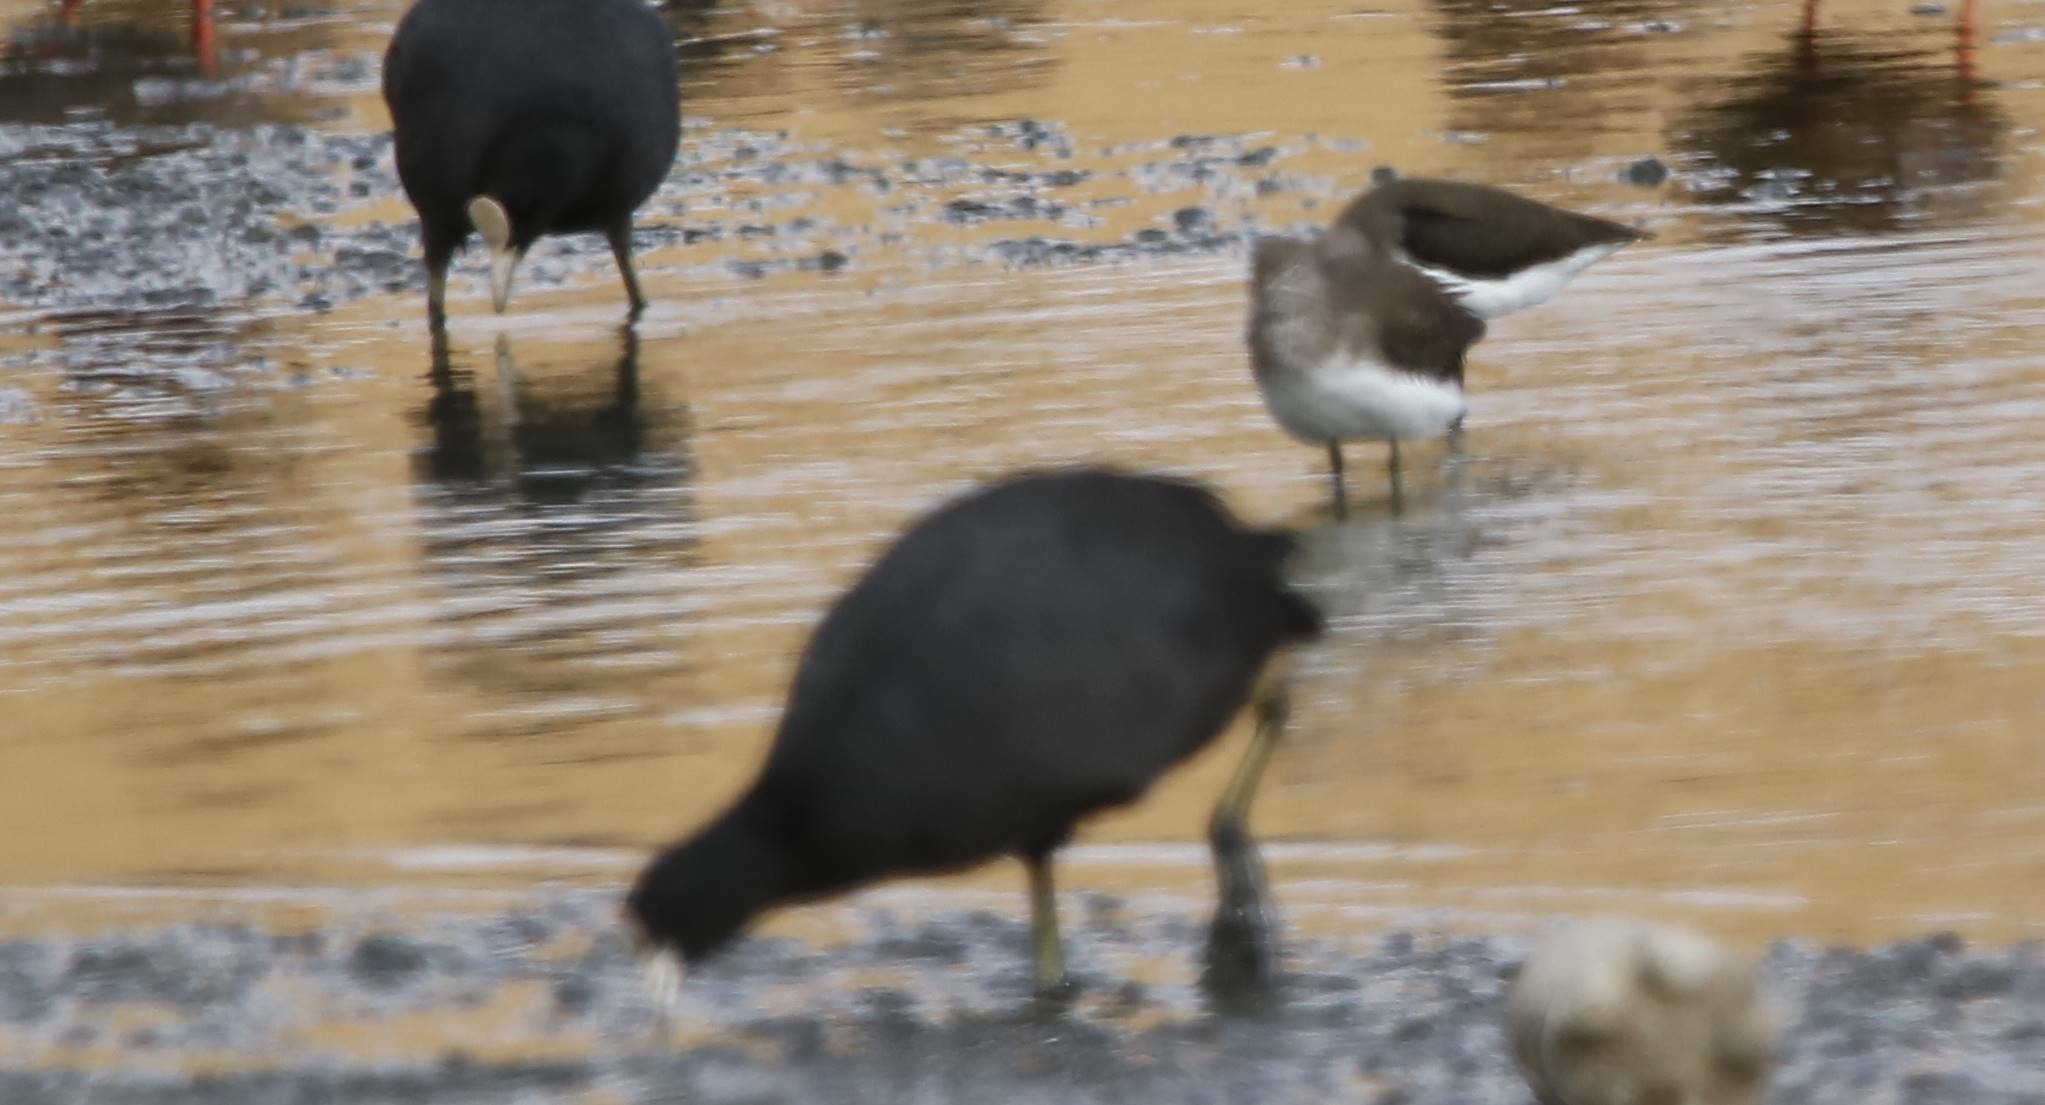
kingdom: Animalia
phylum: Chordata
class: Aves
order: Gruiformes
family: Rallidae
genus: Fulica
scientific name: Fulica atra
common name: Eurasian coot
